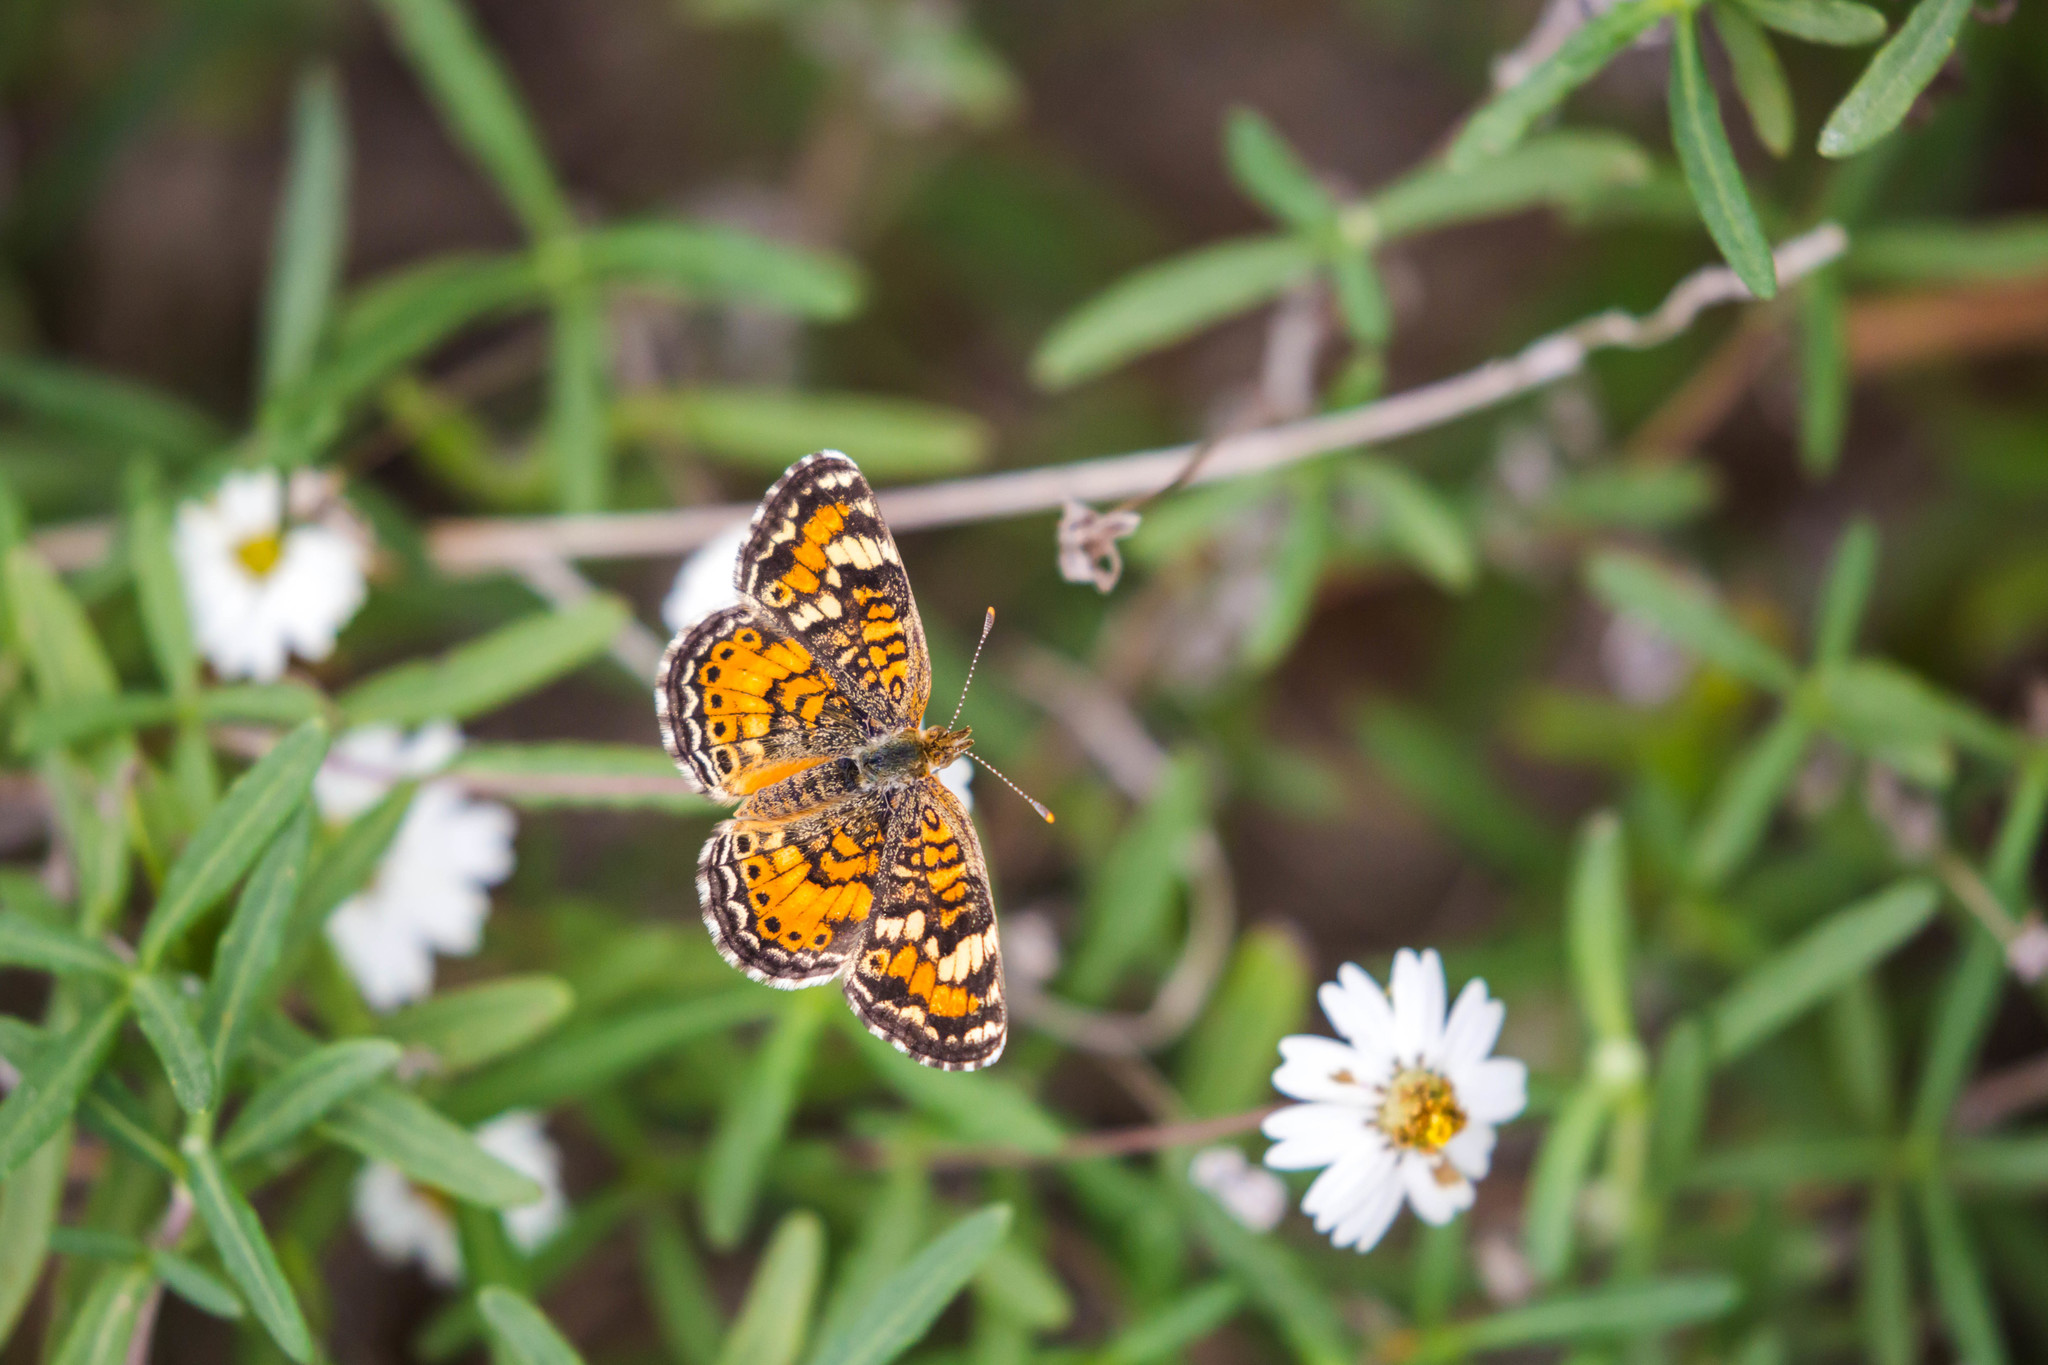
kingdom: Animalia
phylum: Arthropoda
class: Insecta
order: Lepidoptera
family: Nymphalidae
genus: Phyciodes
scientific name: Phyciodes phaon
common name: Phaon crescent
